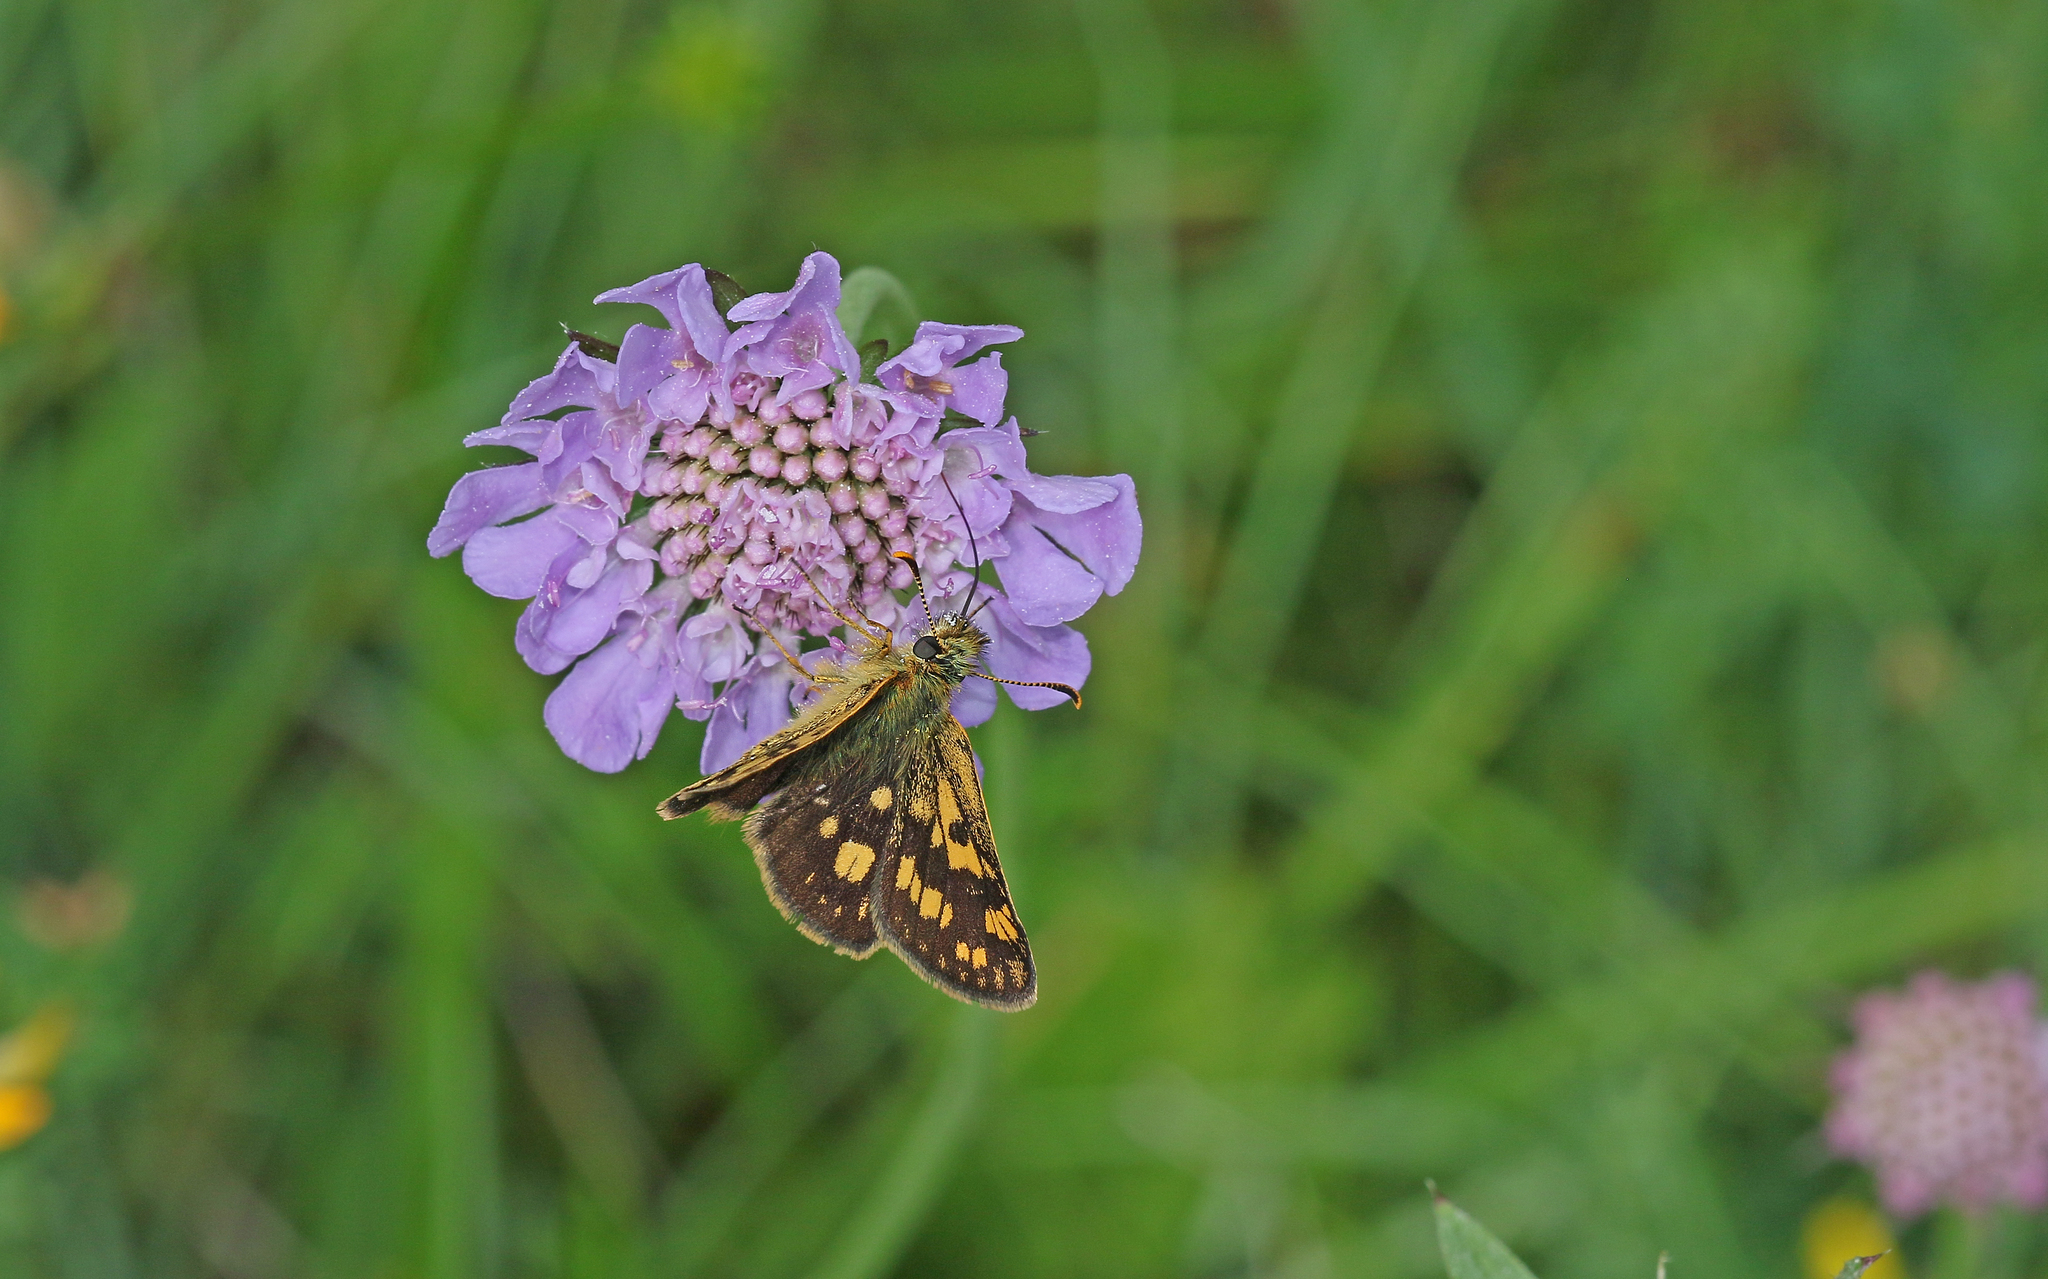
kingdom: Animalia
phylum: Arthropoda
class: Insecta
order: Lepidoptera
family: Hesperiidae
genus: Carterocephalus
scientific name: Carterocephalus palaemon
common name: Chequered skipper
